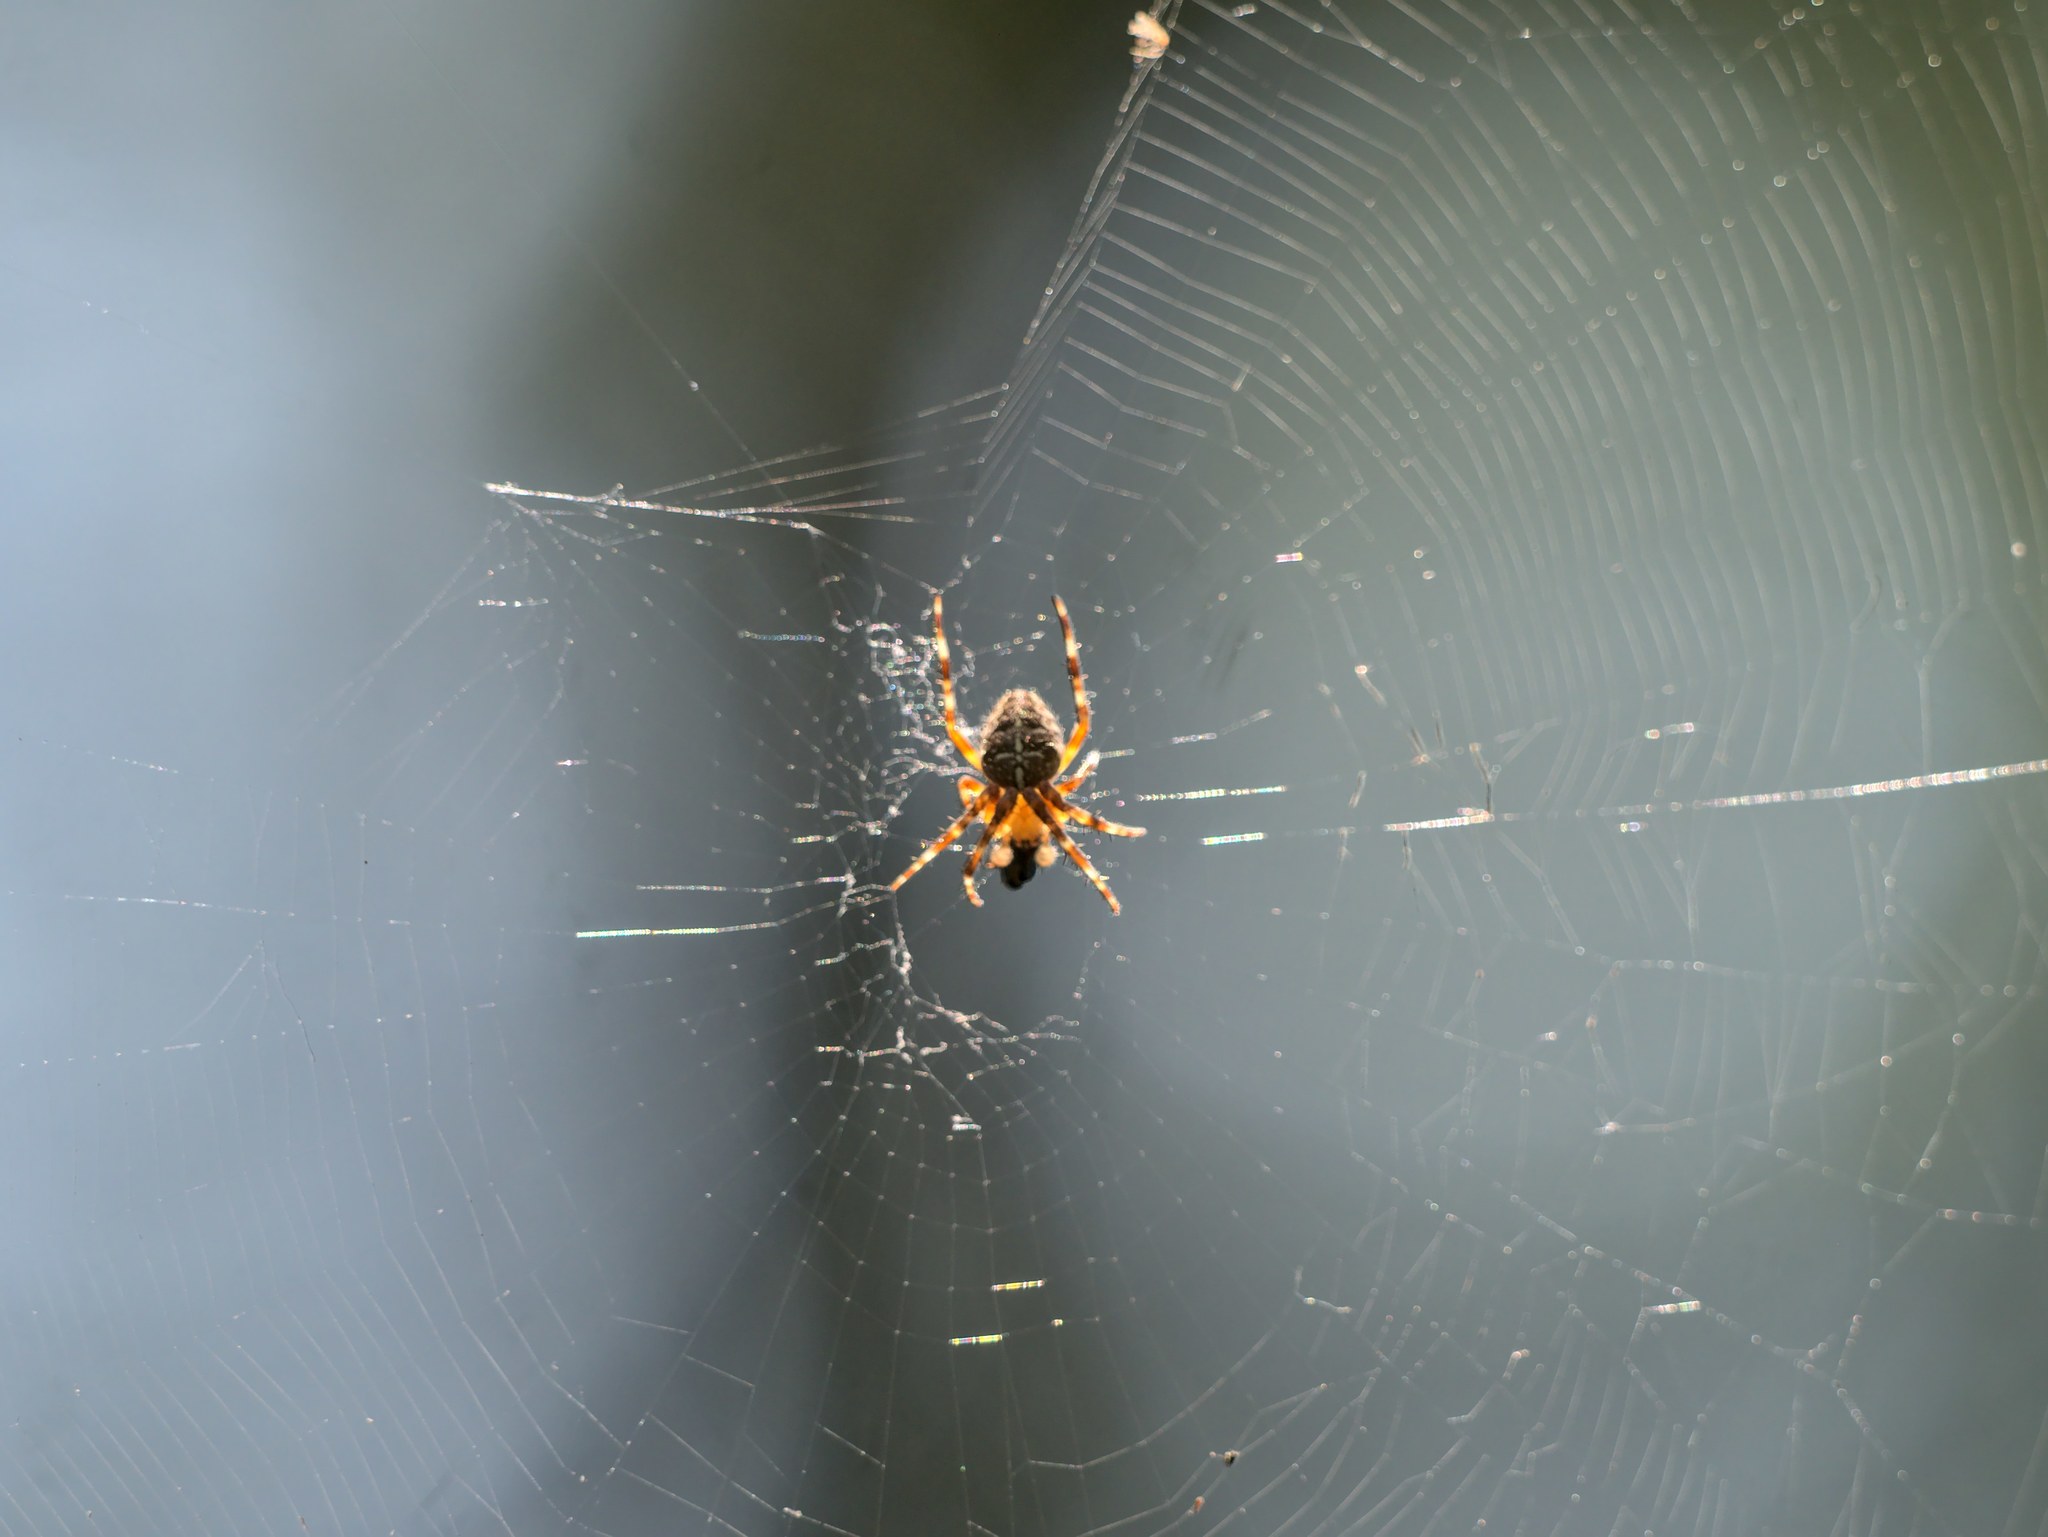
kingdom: Animalia
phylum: Arthropoda
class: Arachnida
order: Araneae
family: Araneidae
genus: Araneus
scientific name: Araneus diadematus
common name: Cross orbweaver
